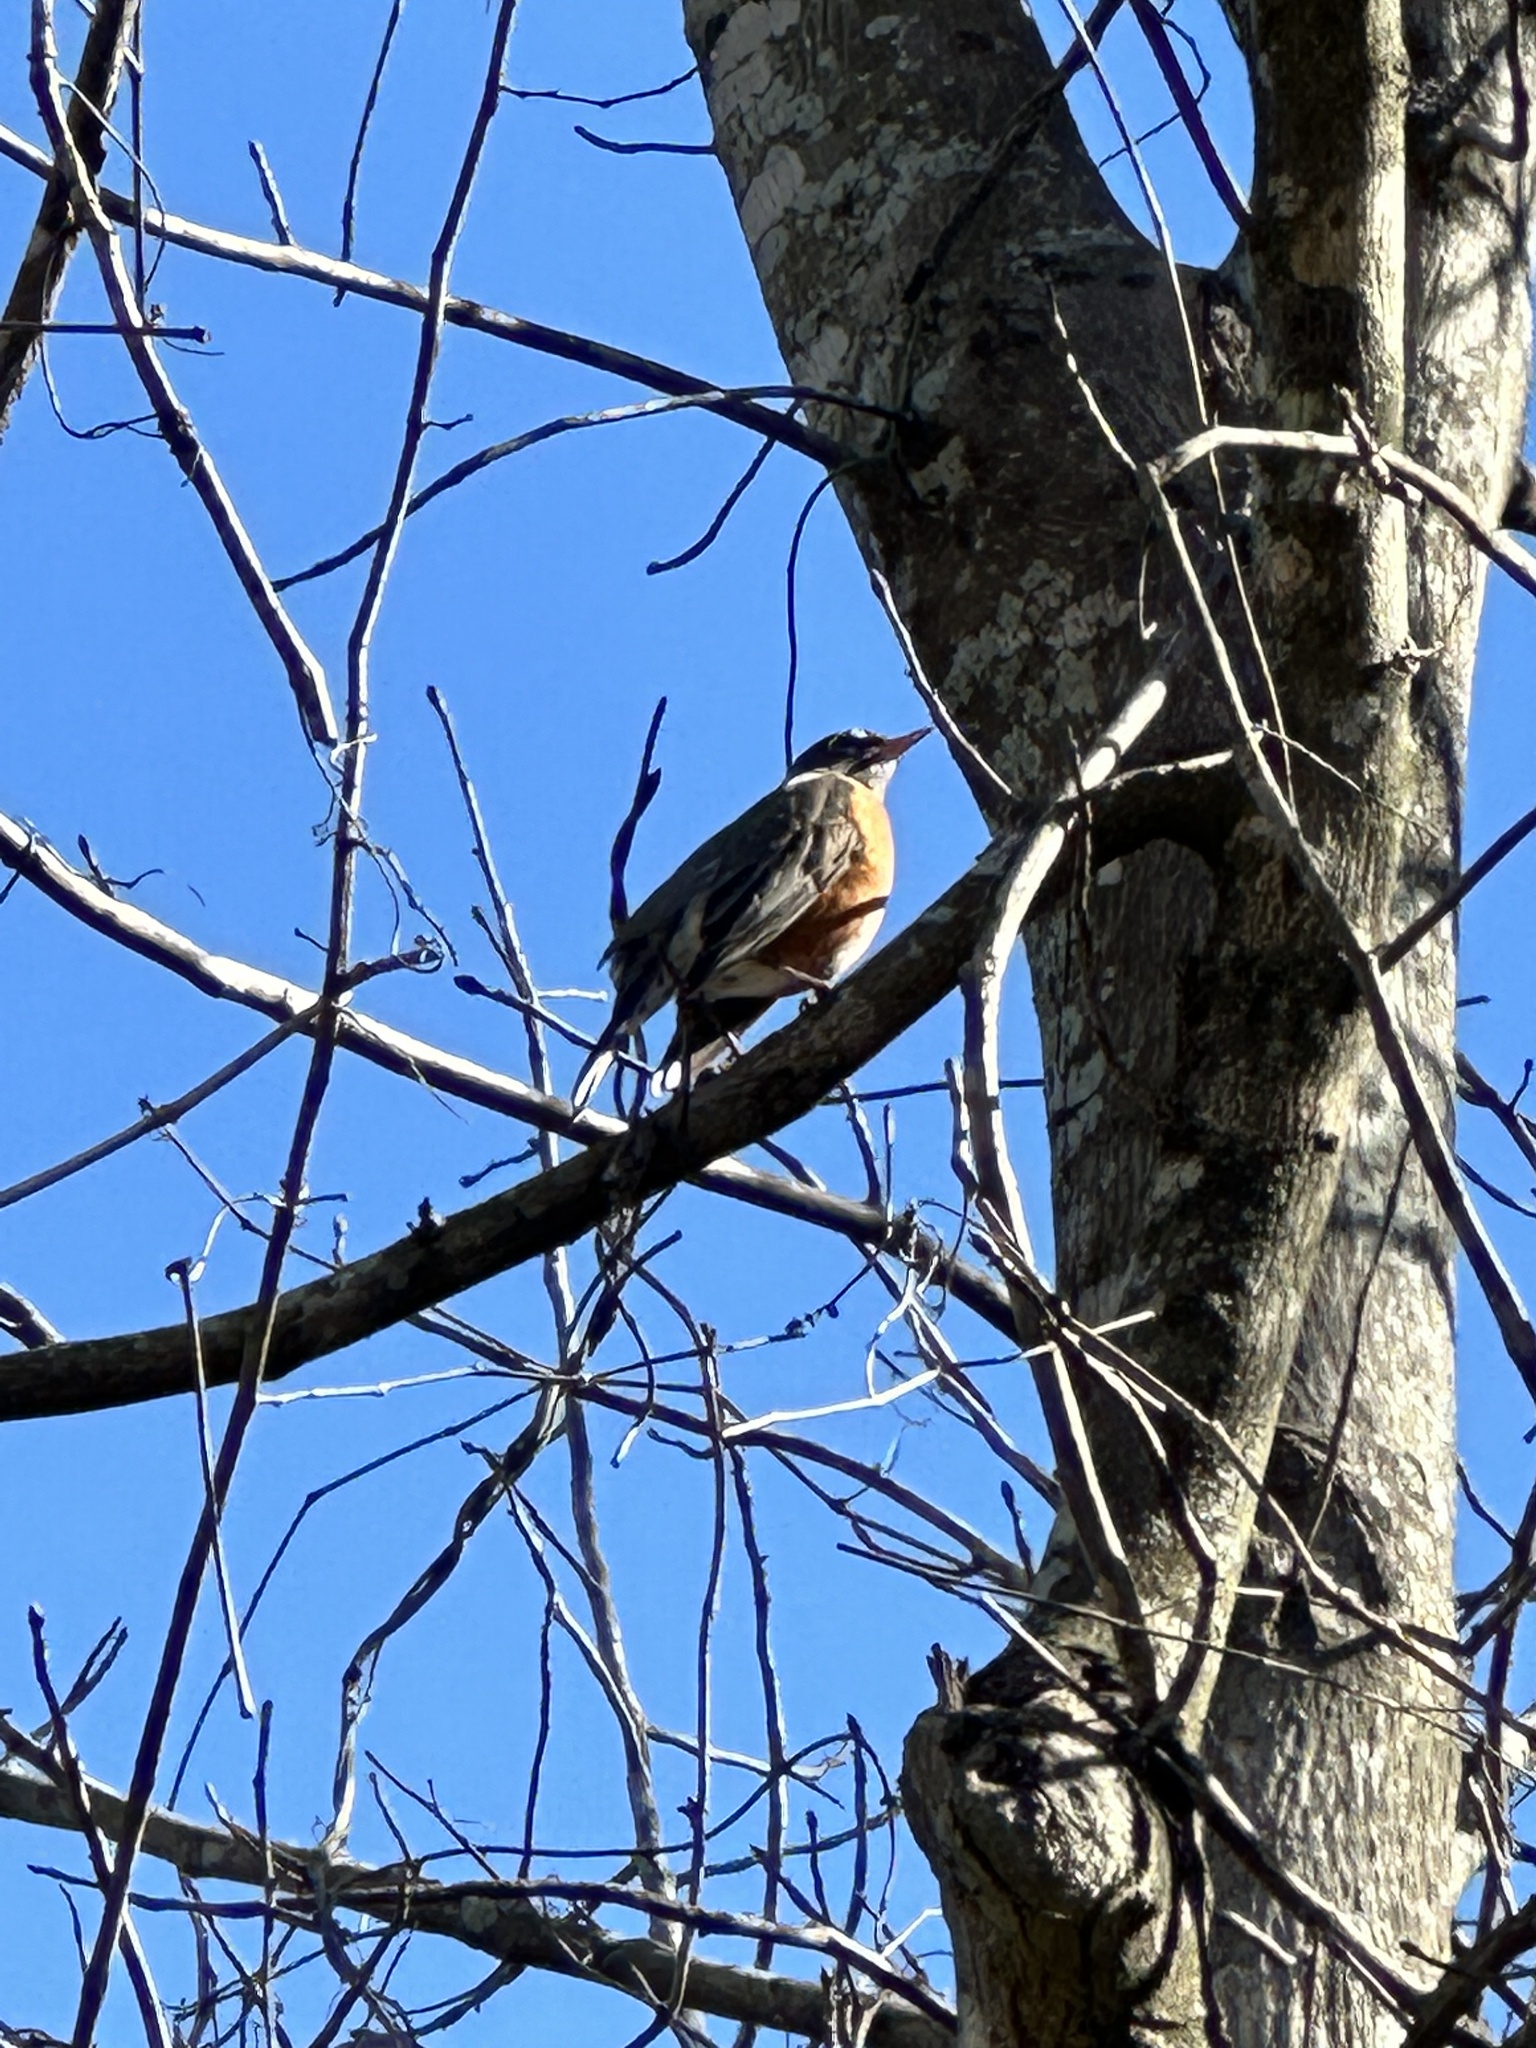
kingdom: Animalia
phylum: Chordata
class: Aves
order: Passeriformes
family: Turdidae
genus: Turdus
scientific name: Turdus migratorius
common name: American robin
